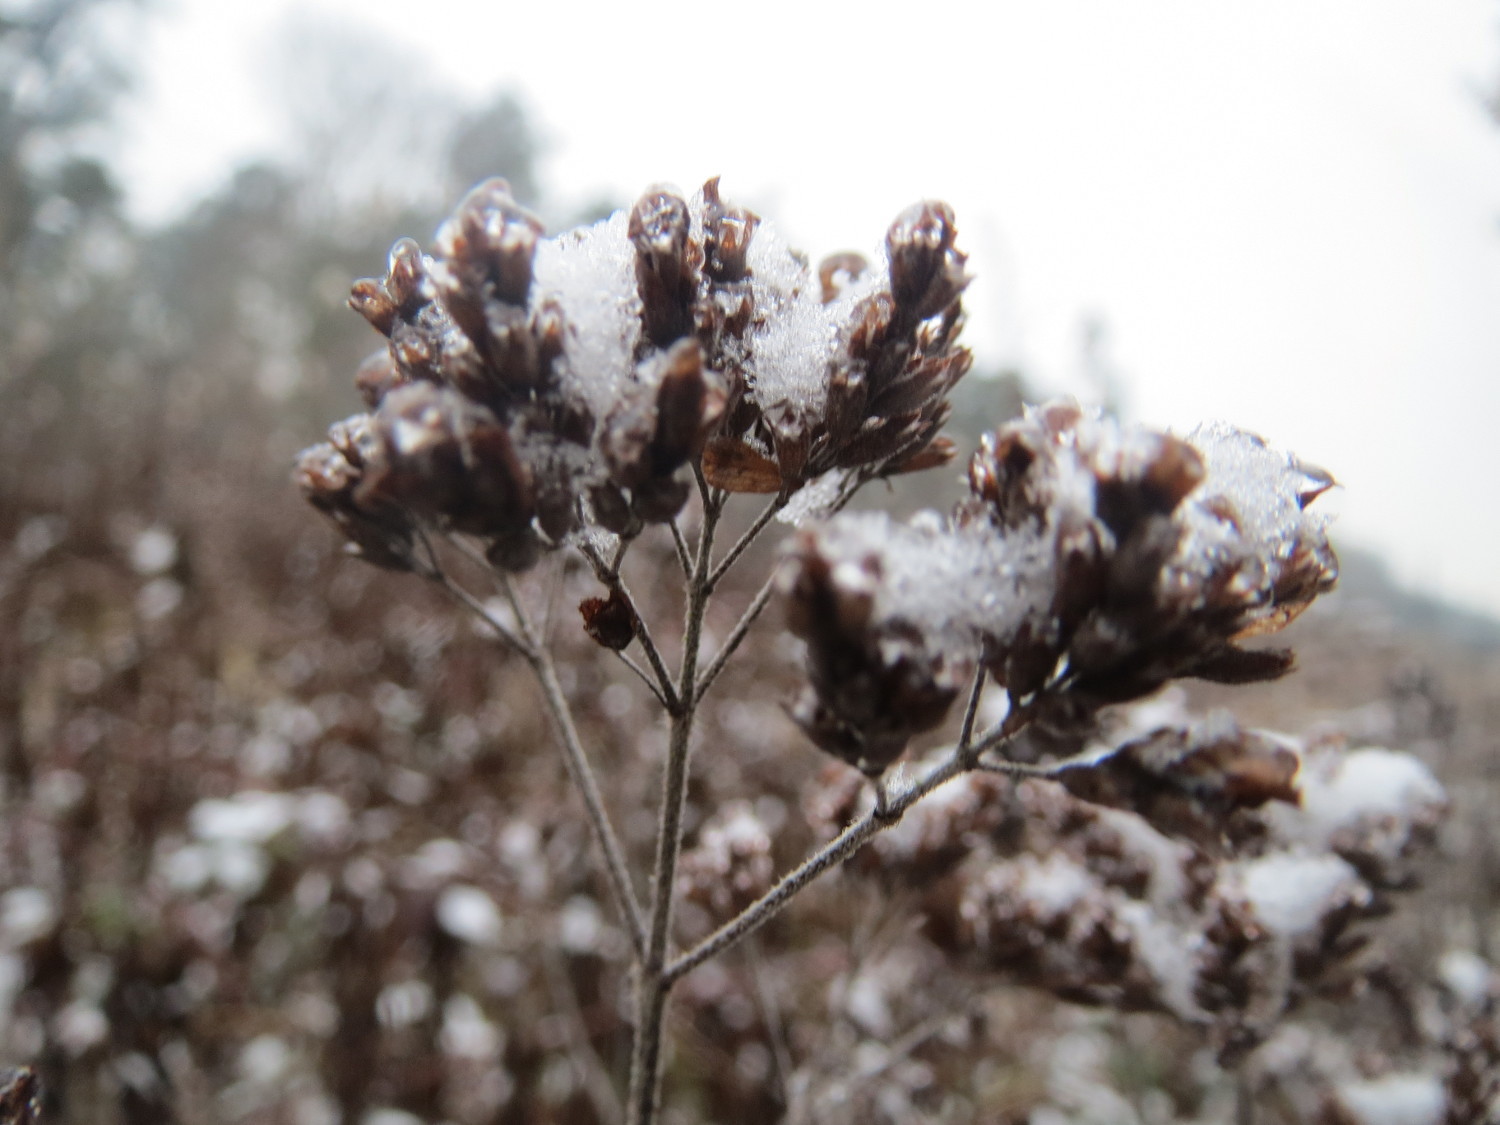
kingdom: Plantae
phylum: Tracheophyta
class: Magnoliopsida
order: Lamiales
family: Lamiaceae
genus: Origanum
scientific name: Origanum vulgare
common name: Wild marjoram
